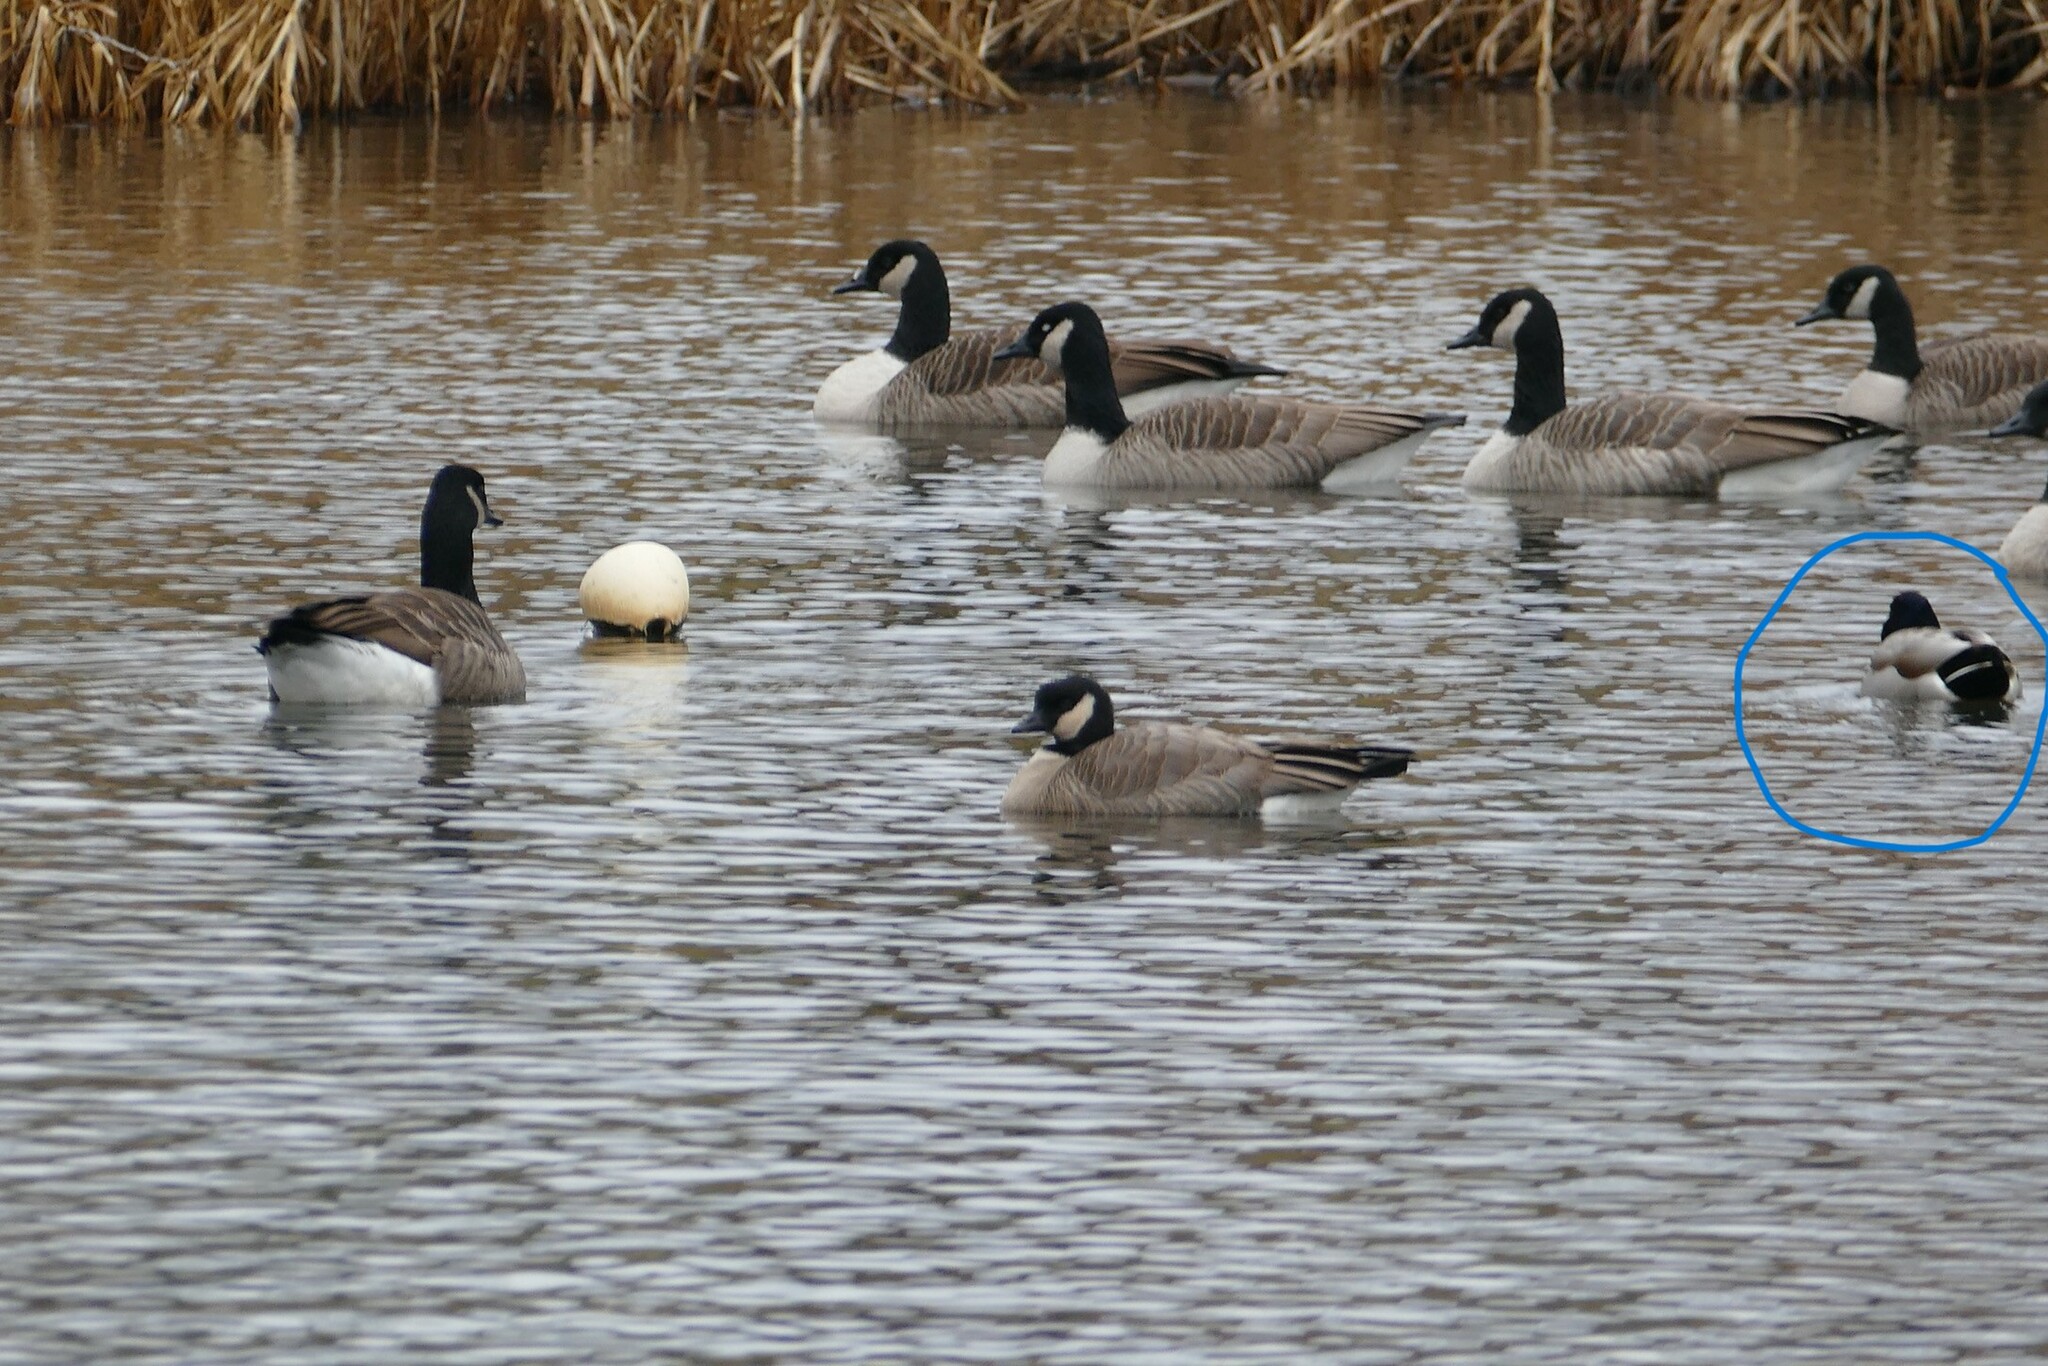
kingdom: Animalia
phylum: Chordata
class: Aves
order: Anseriformes
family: Anatidae
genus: Anas
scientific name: Anas platyrhynchos
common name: Mallard
